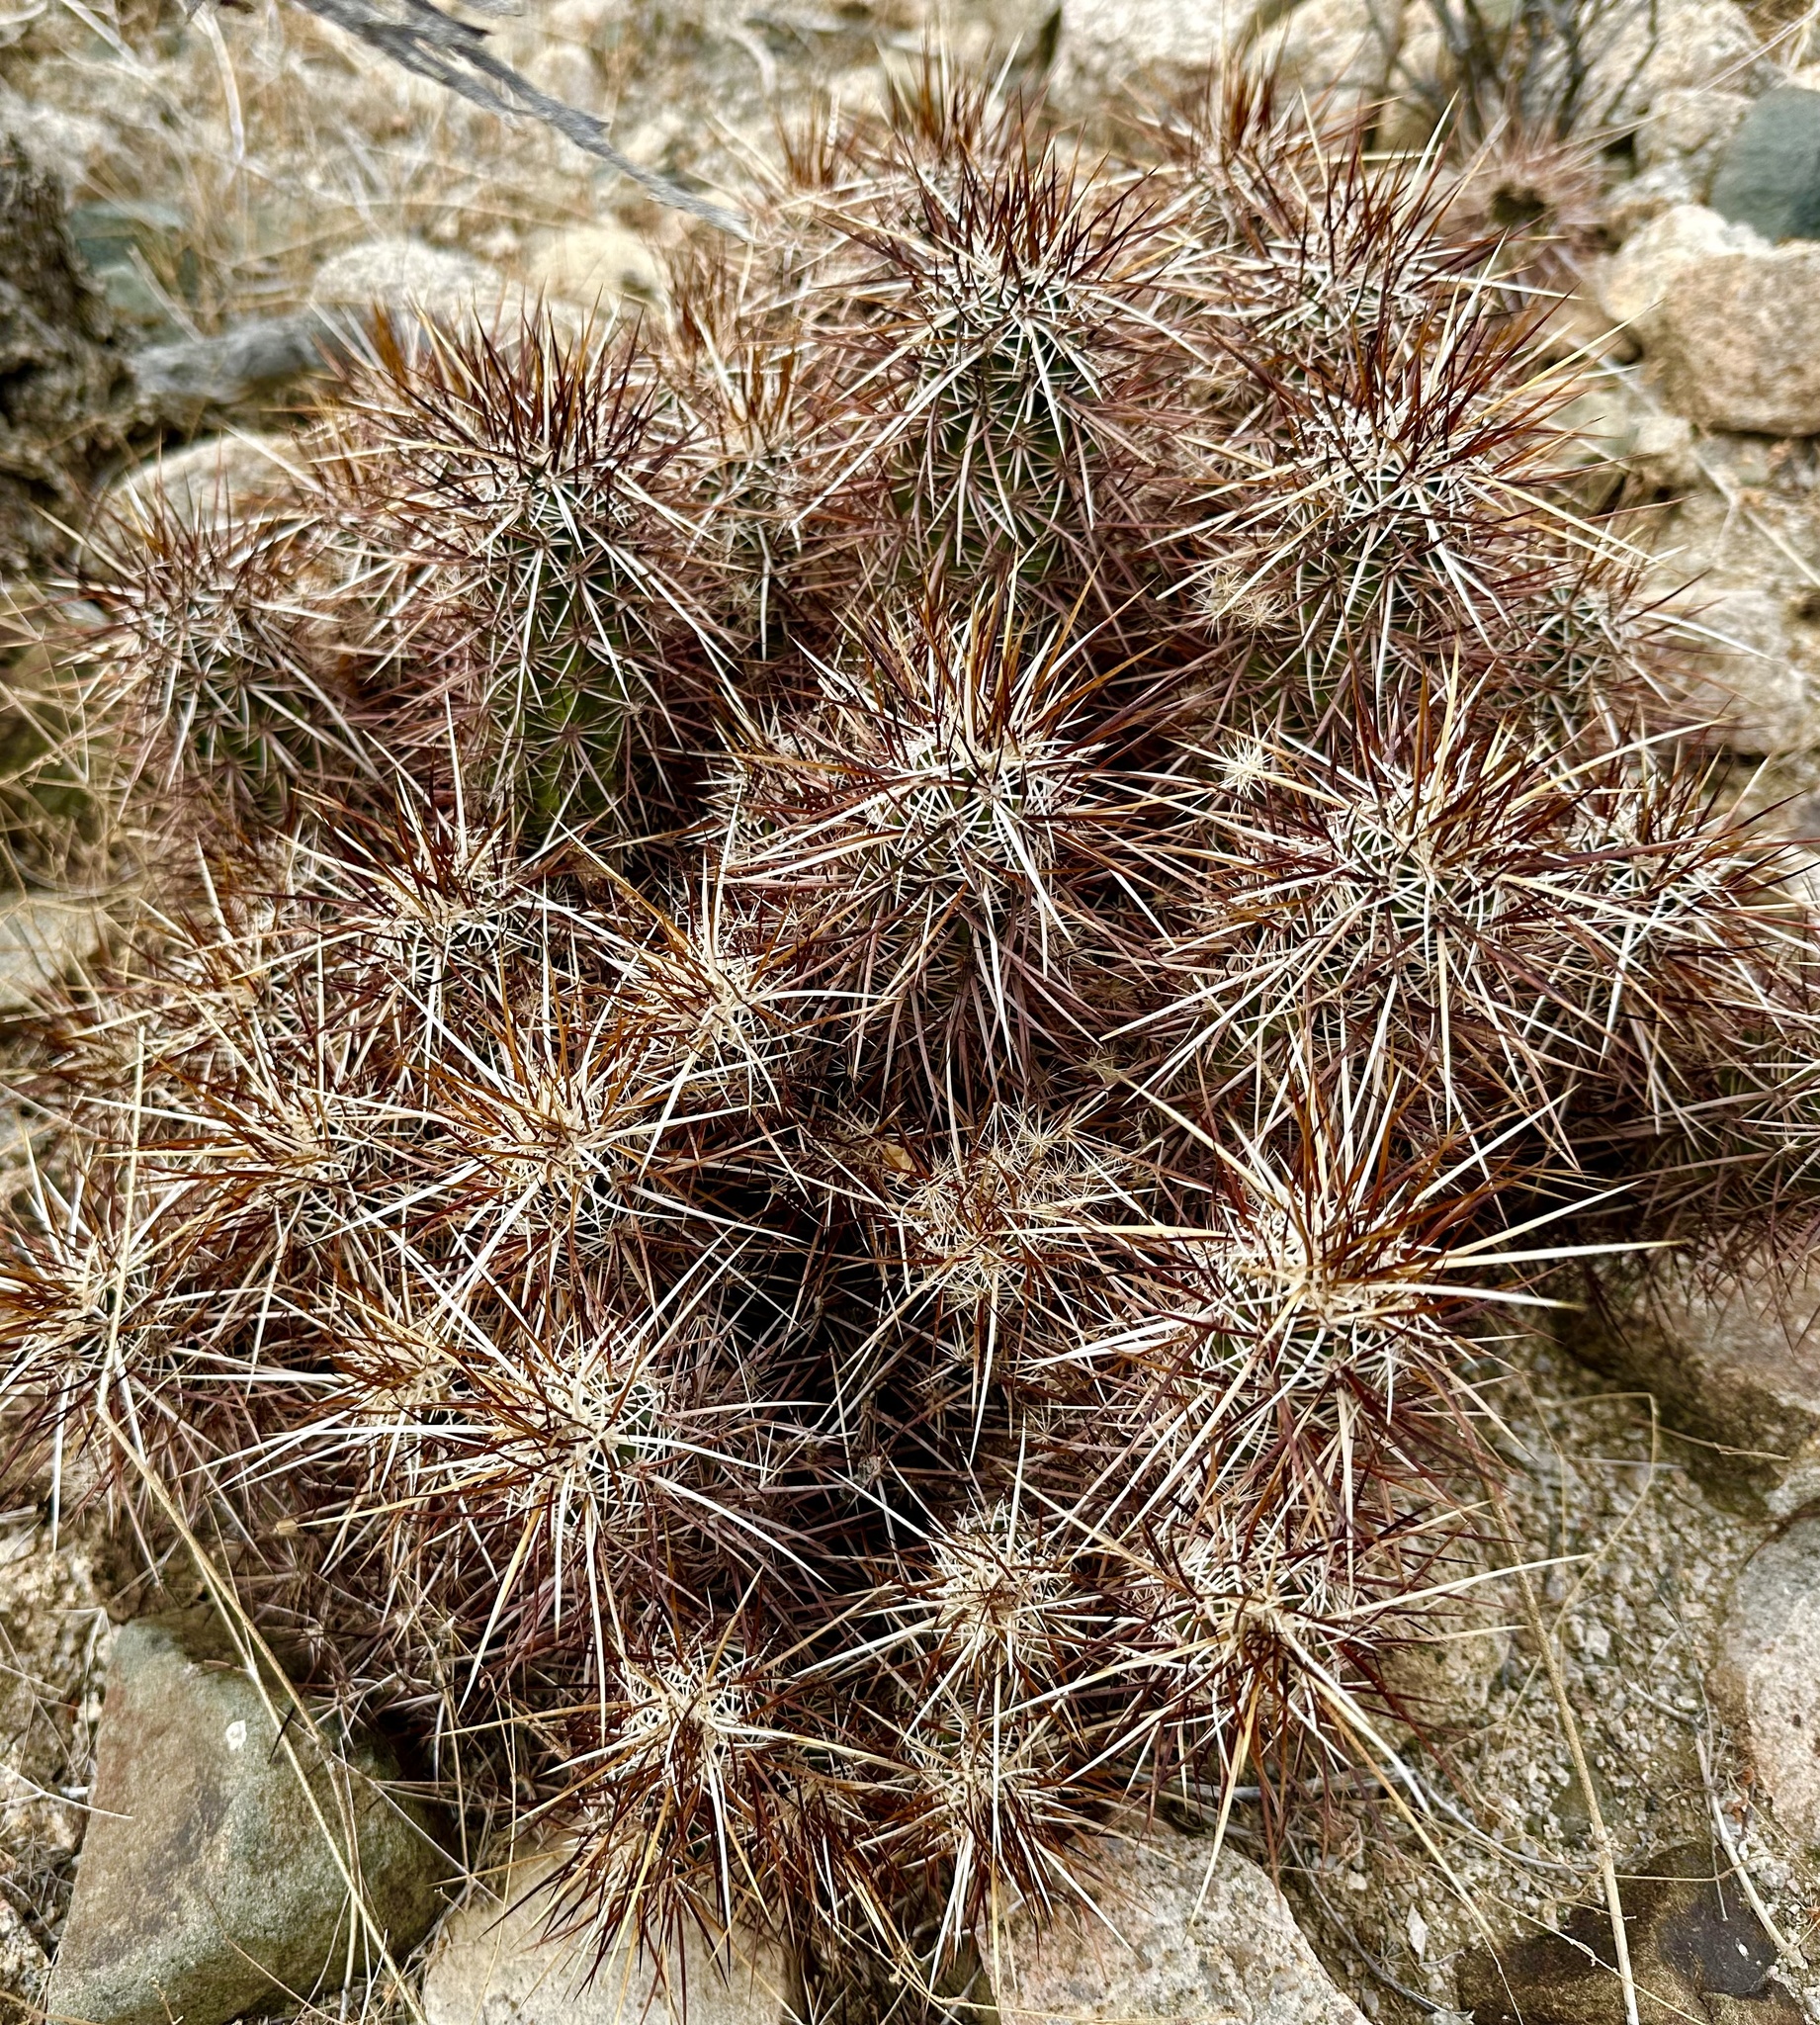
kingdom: Plantae
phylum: Tracheophyta
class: Magnoliopsida
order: Caryophyllales
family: Cactaceae
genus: Echinocereus
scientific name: Echinocereus engelmannii
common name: Engelmann's hedgehog cactus
